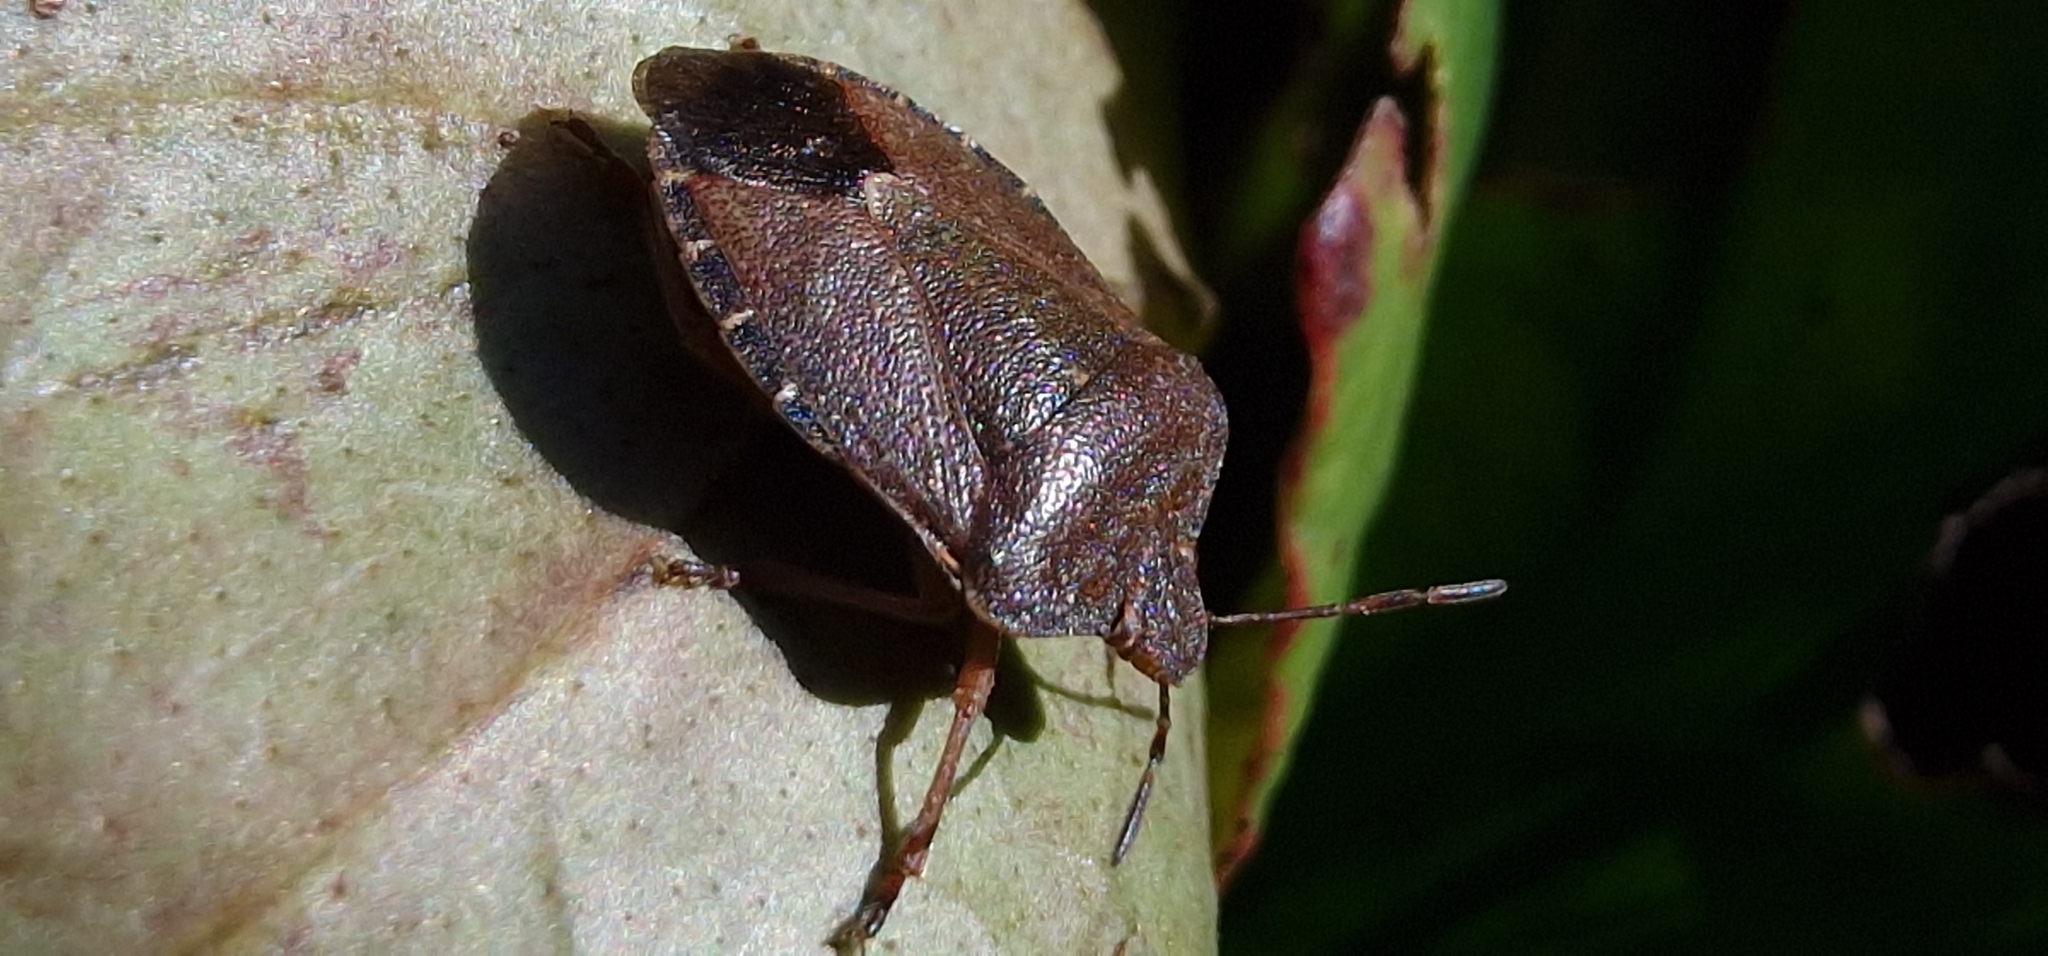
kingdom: Animalia
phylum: Arthropoda
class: Insecta
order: Hemiptera
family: Pentatomidae
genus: Palomena
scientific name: Palomena prasina
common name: Green shieldbug
